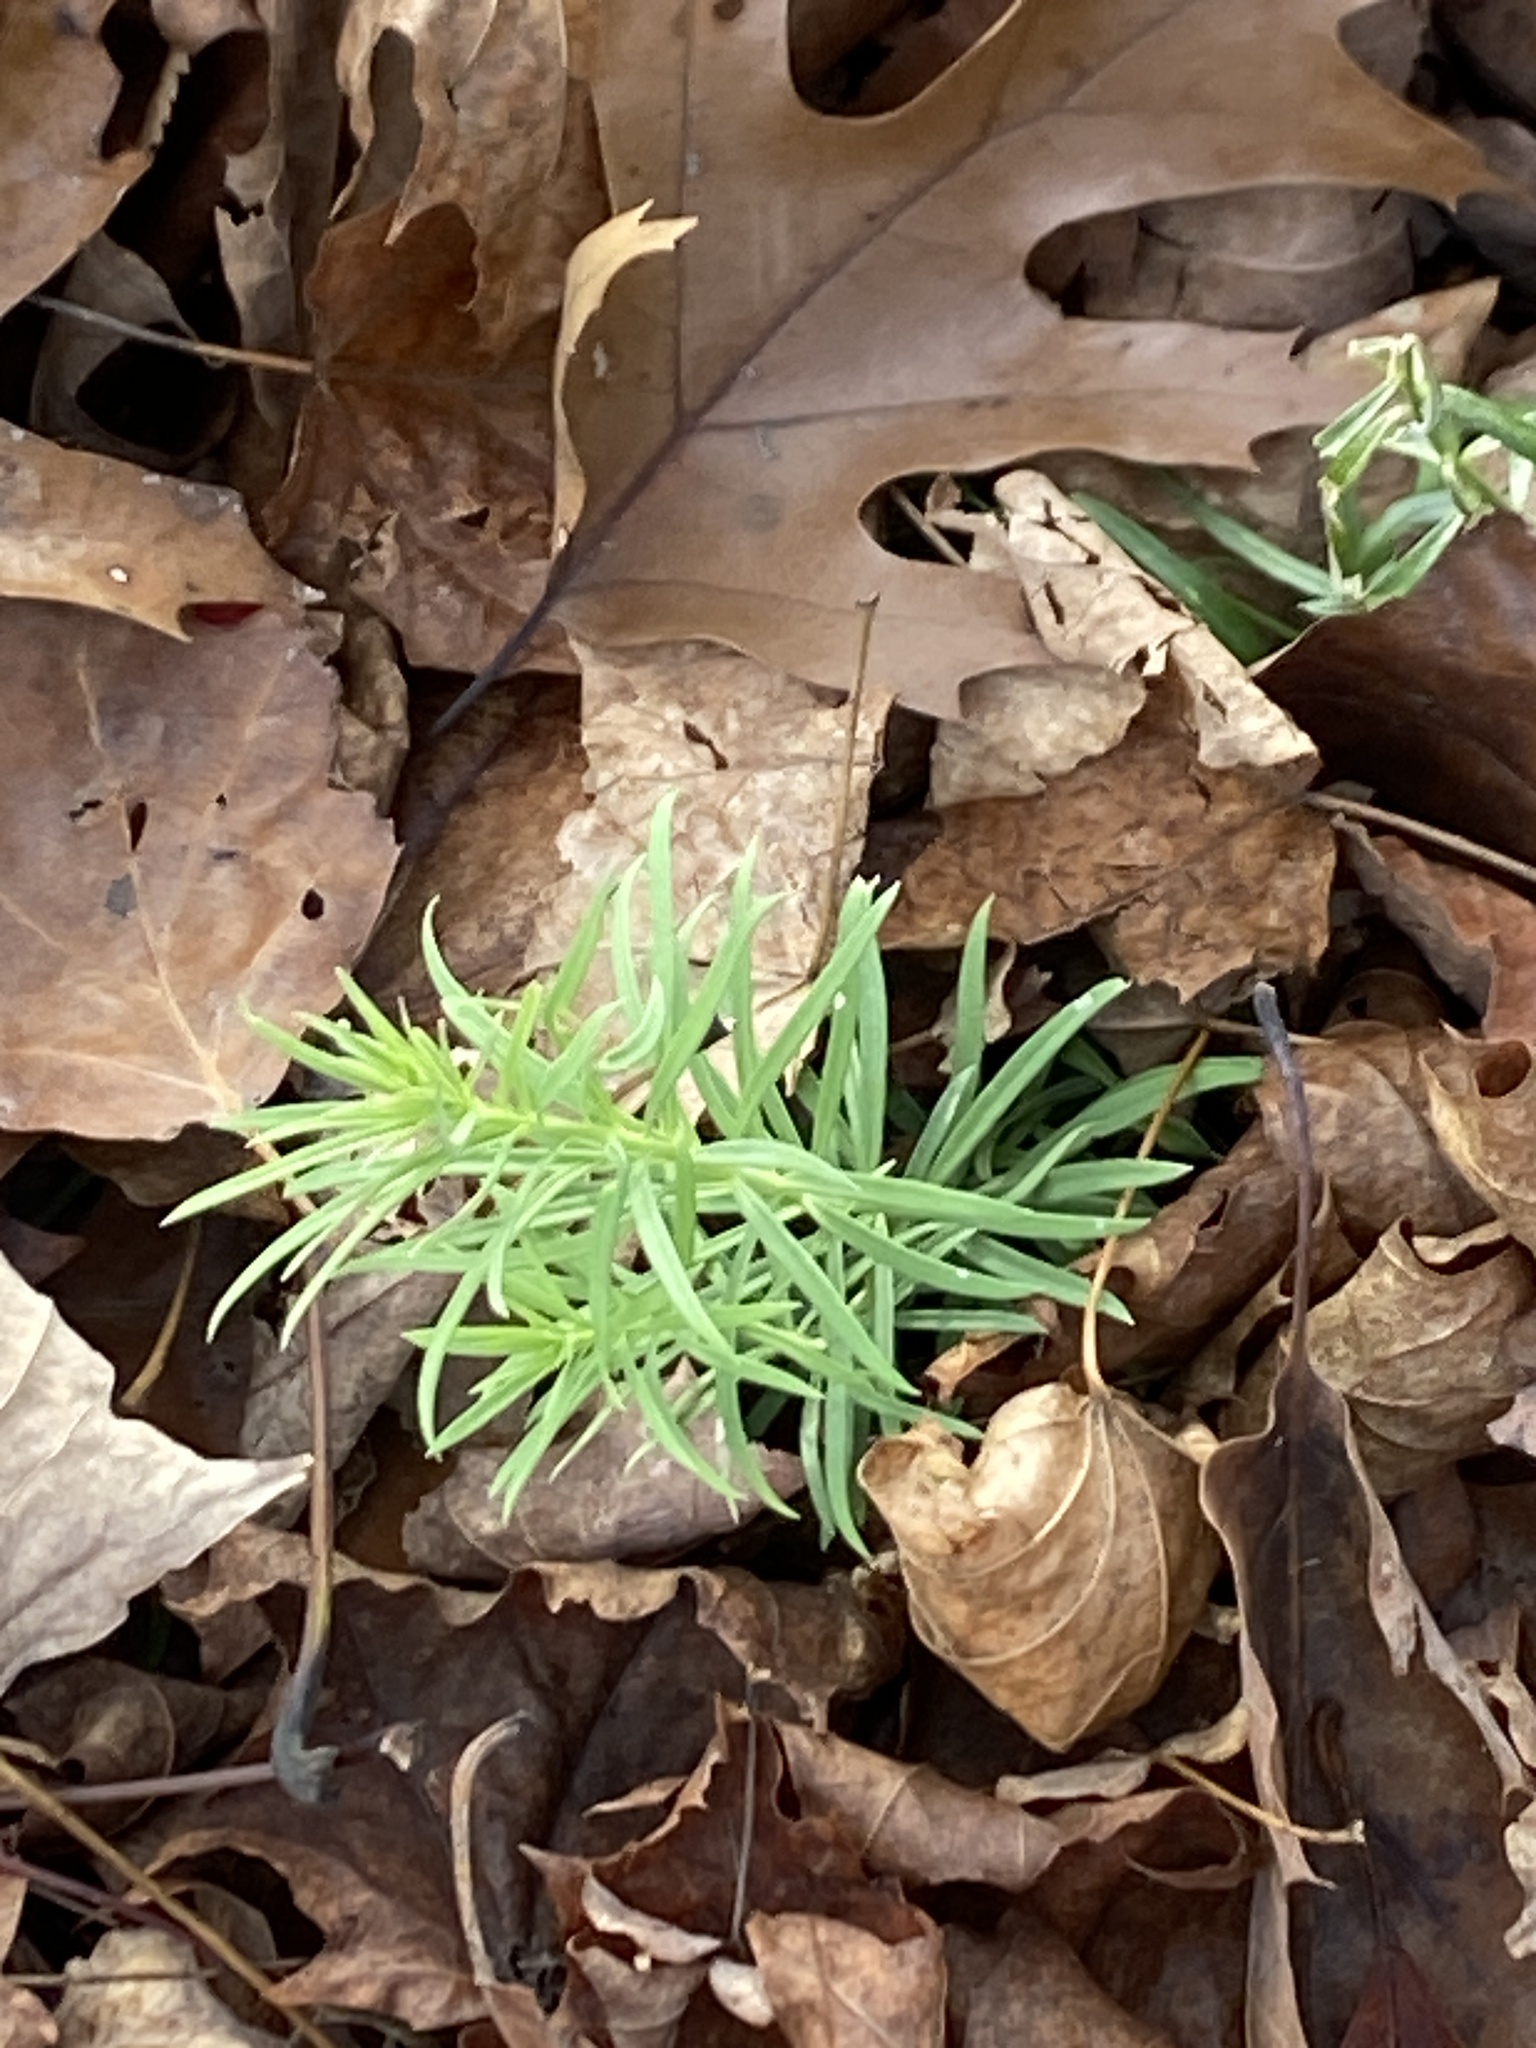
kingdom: Plantae
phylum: Tracheophyta
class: Magnoliopsida
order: Lamiales
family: Plantaginaceae
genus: Linaria
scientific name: Linaria vulgaris
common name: Butter and eggs
